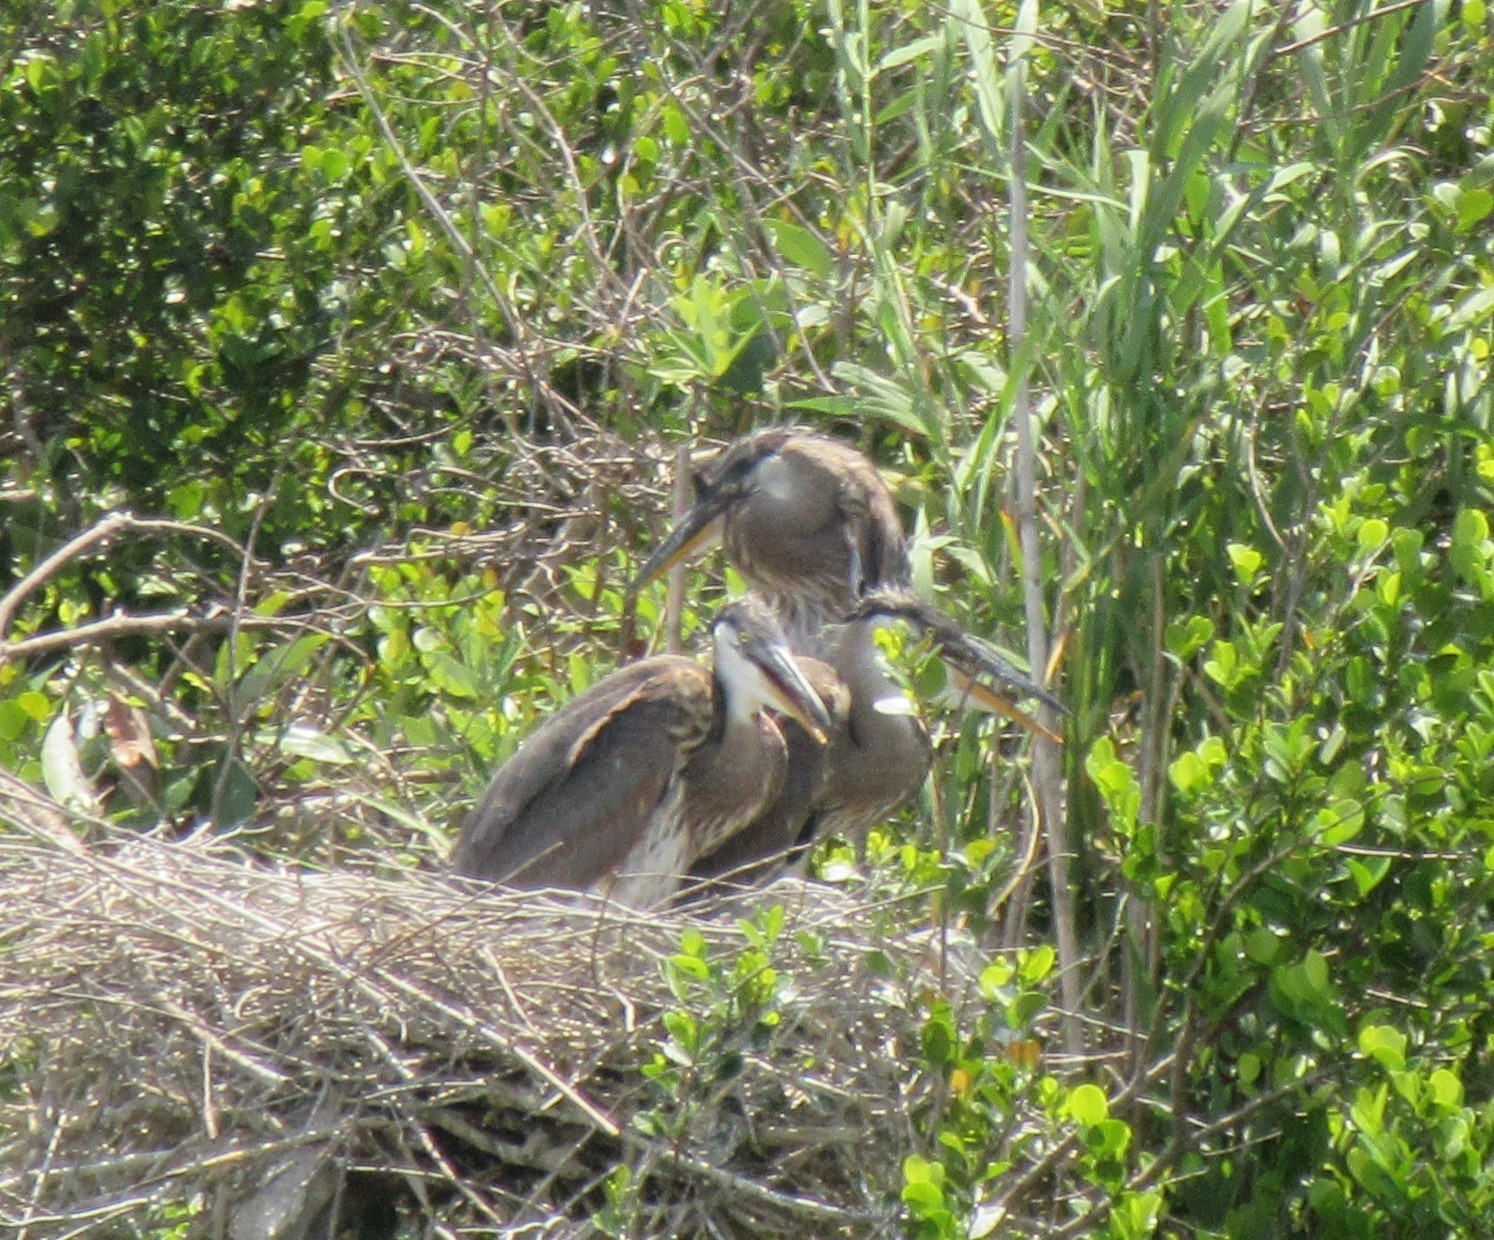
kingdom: Animalia
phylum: Chordata
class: Aves
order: Pelecaniformes
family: Ardeidae
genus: Ardea
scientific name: Ardea herodias
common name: Great blue heron
